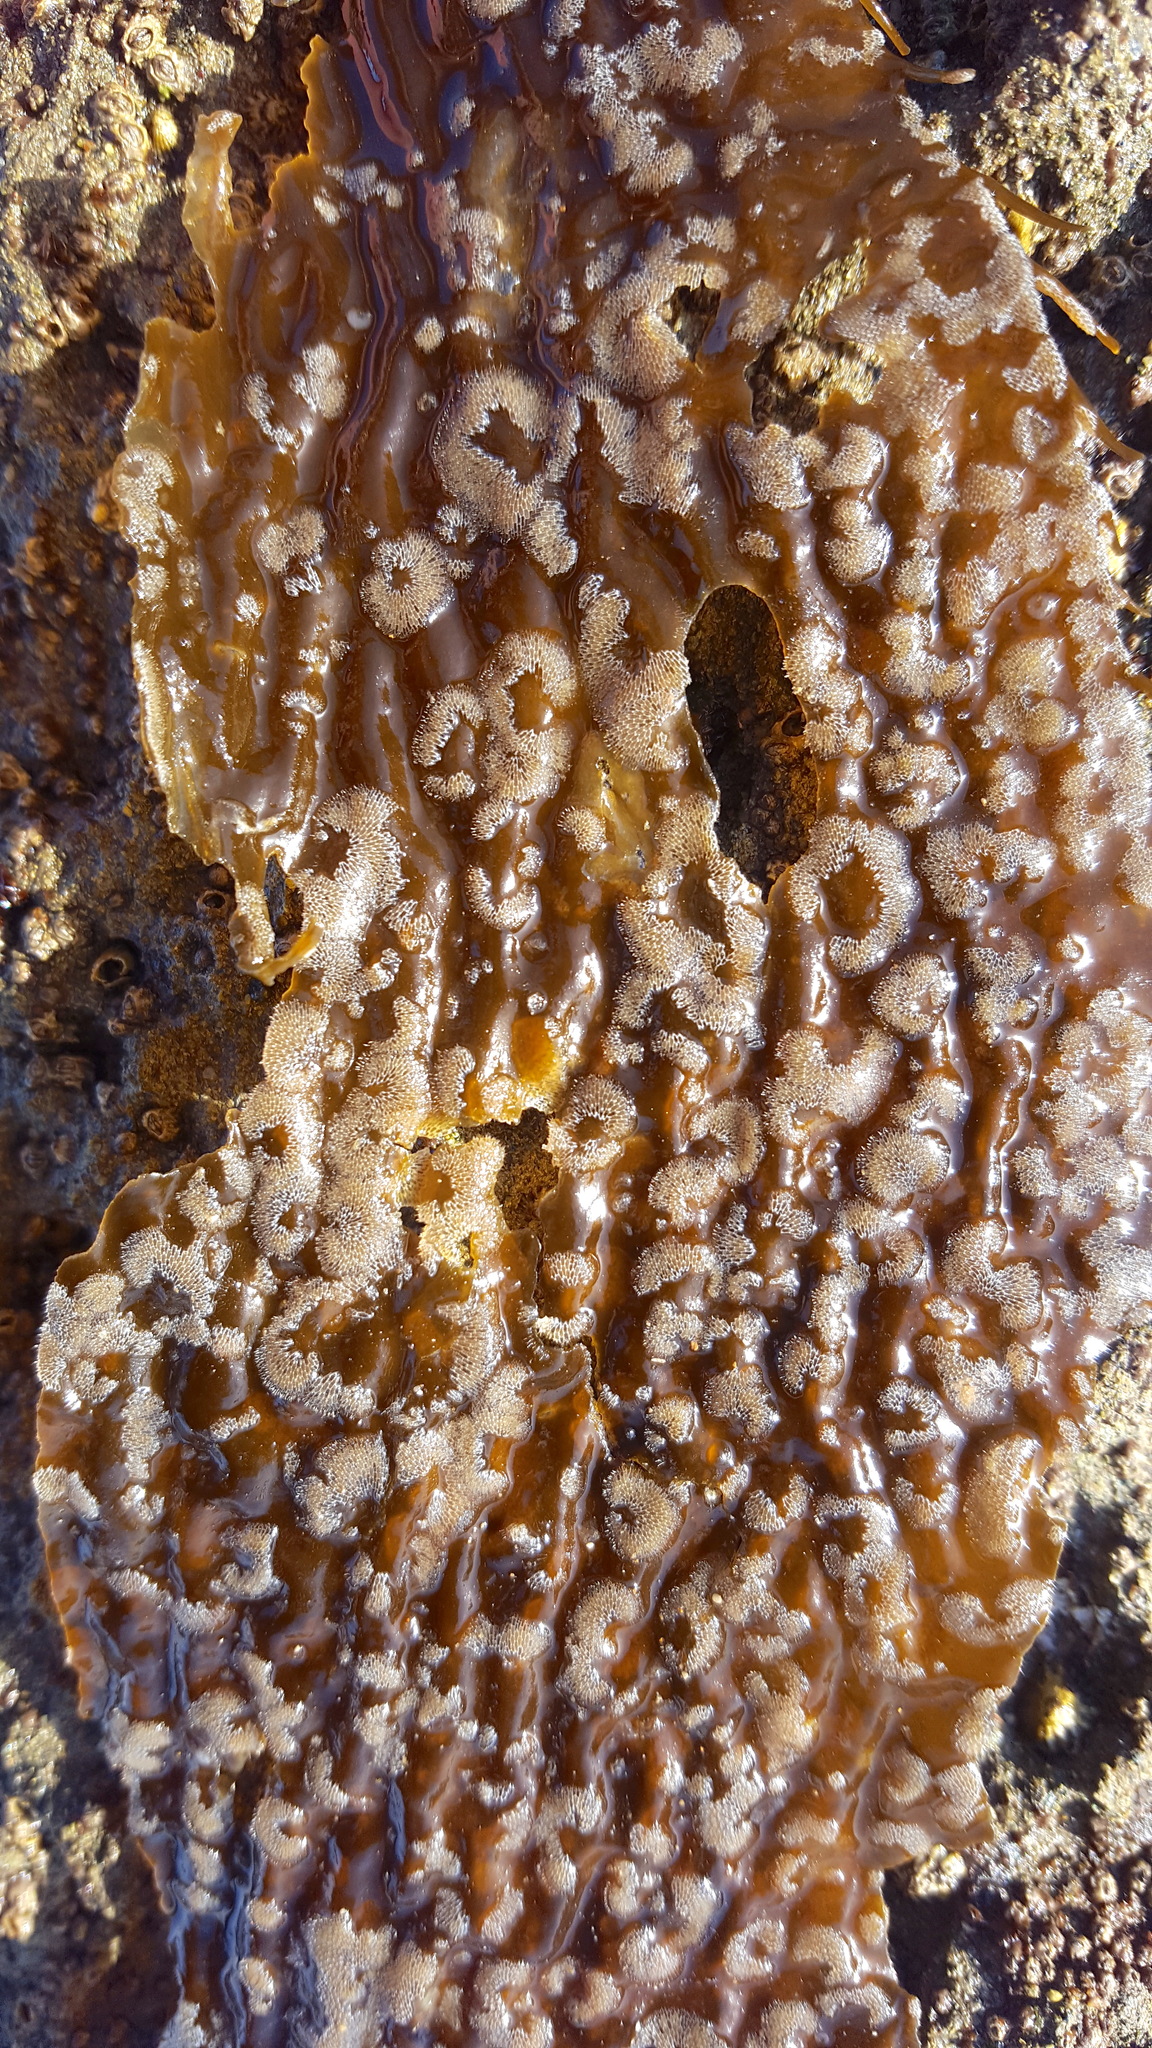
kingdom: Animalia
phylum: Bryozoa
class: Gymnolaemata
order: Cheilostomatida
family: Membraniporidae
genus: Membranipora
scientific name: Membranipora membranacea
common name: Sea mat
